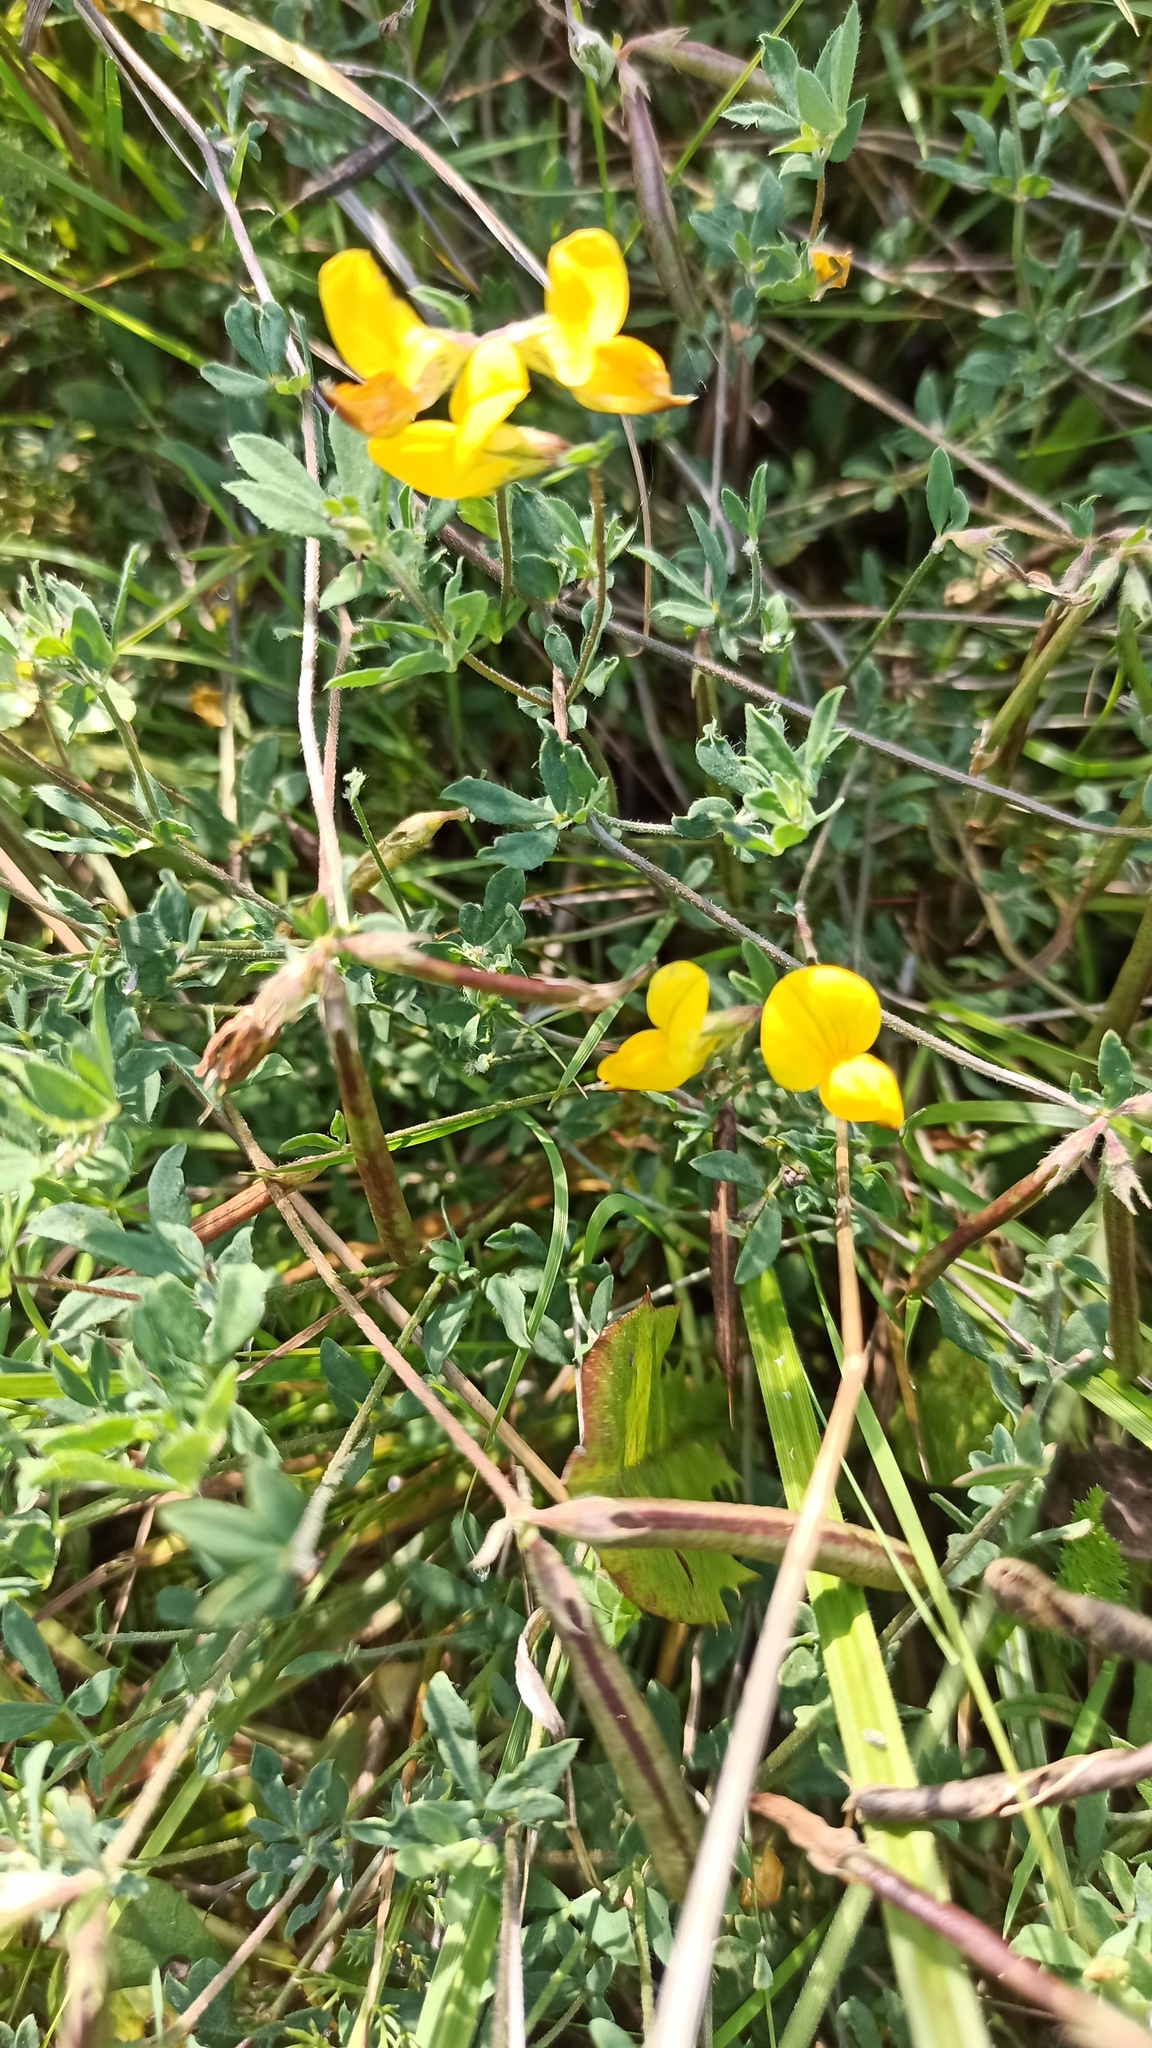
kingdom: Plantae
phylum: Tracheophyta
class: Magnoliopsida
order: Fabales
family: Fabaceae
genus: Lotus
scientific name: Lotus corniculatus
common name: Common bird's-foot-trefoil
